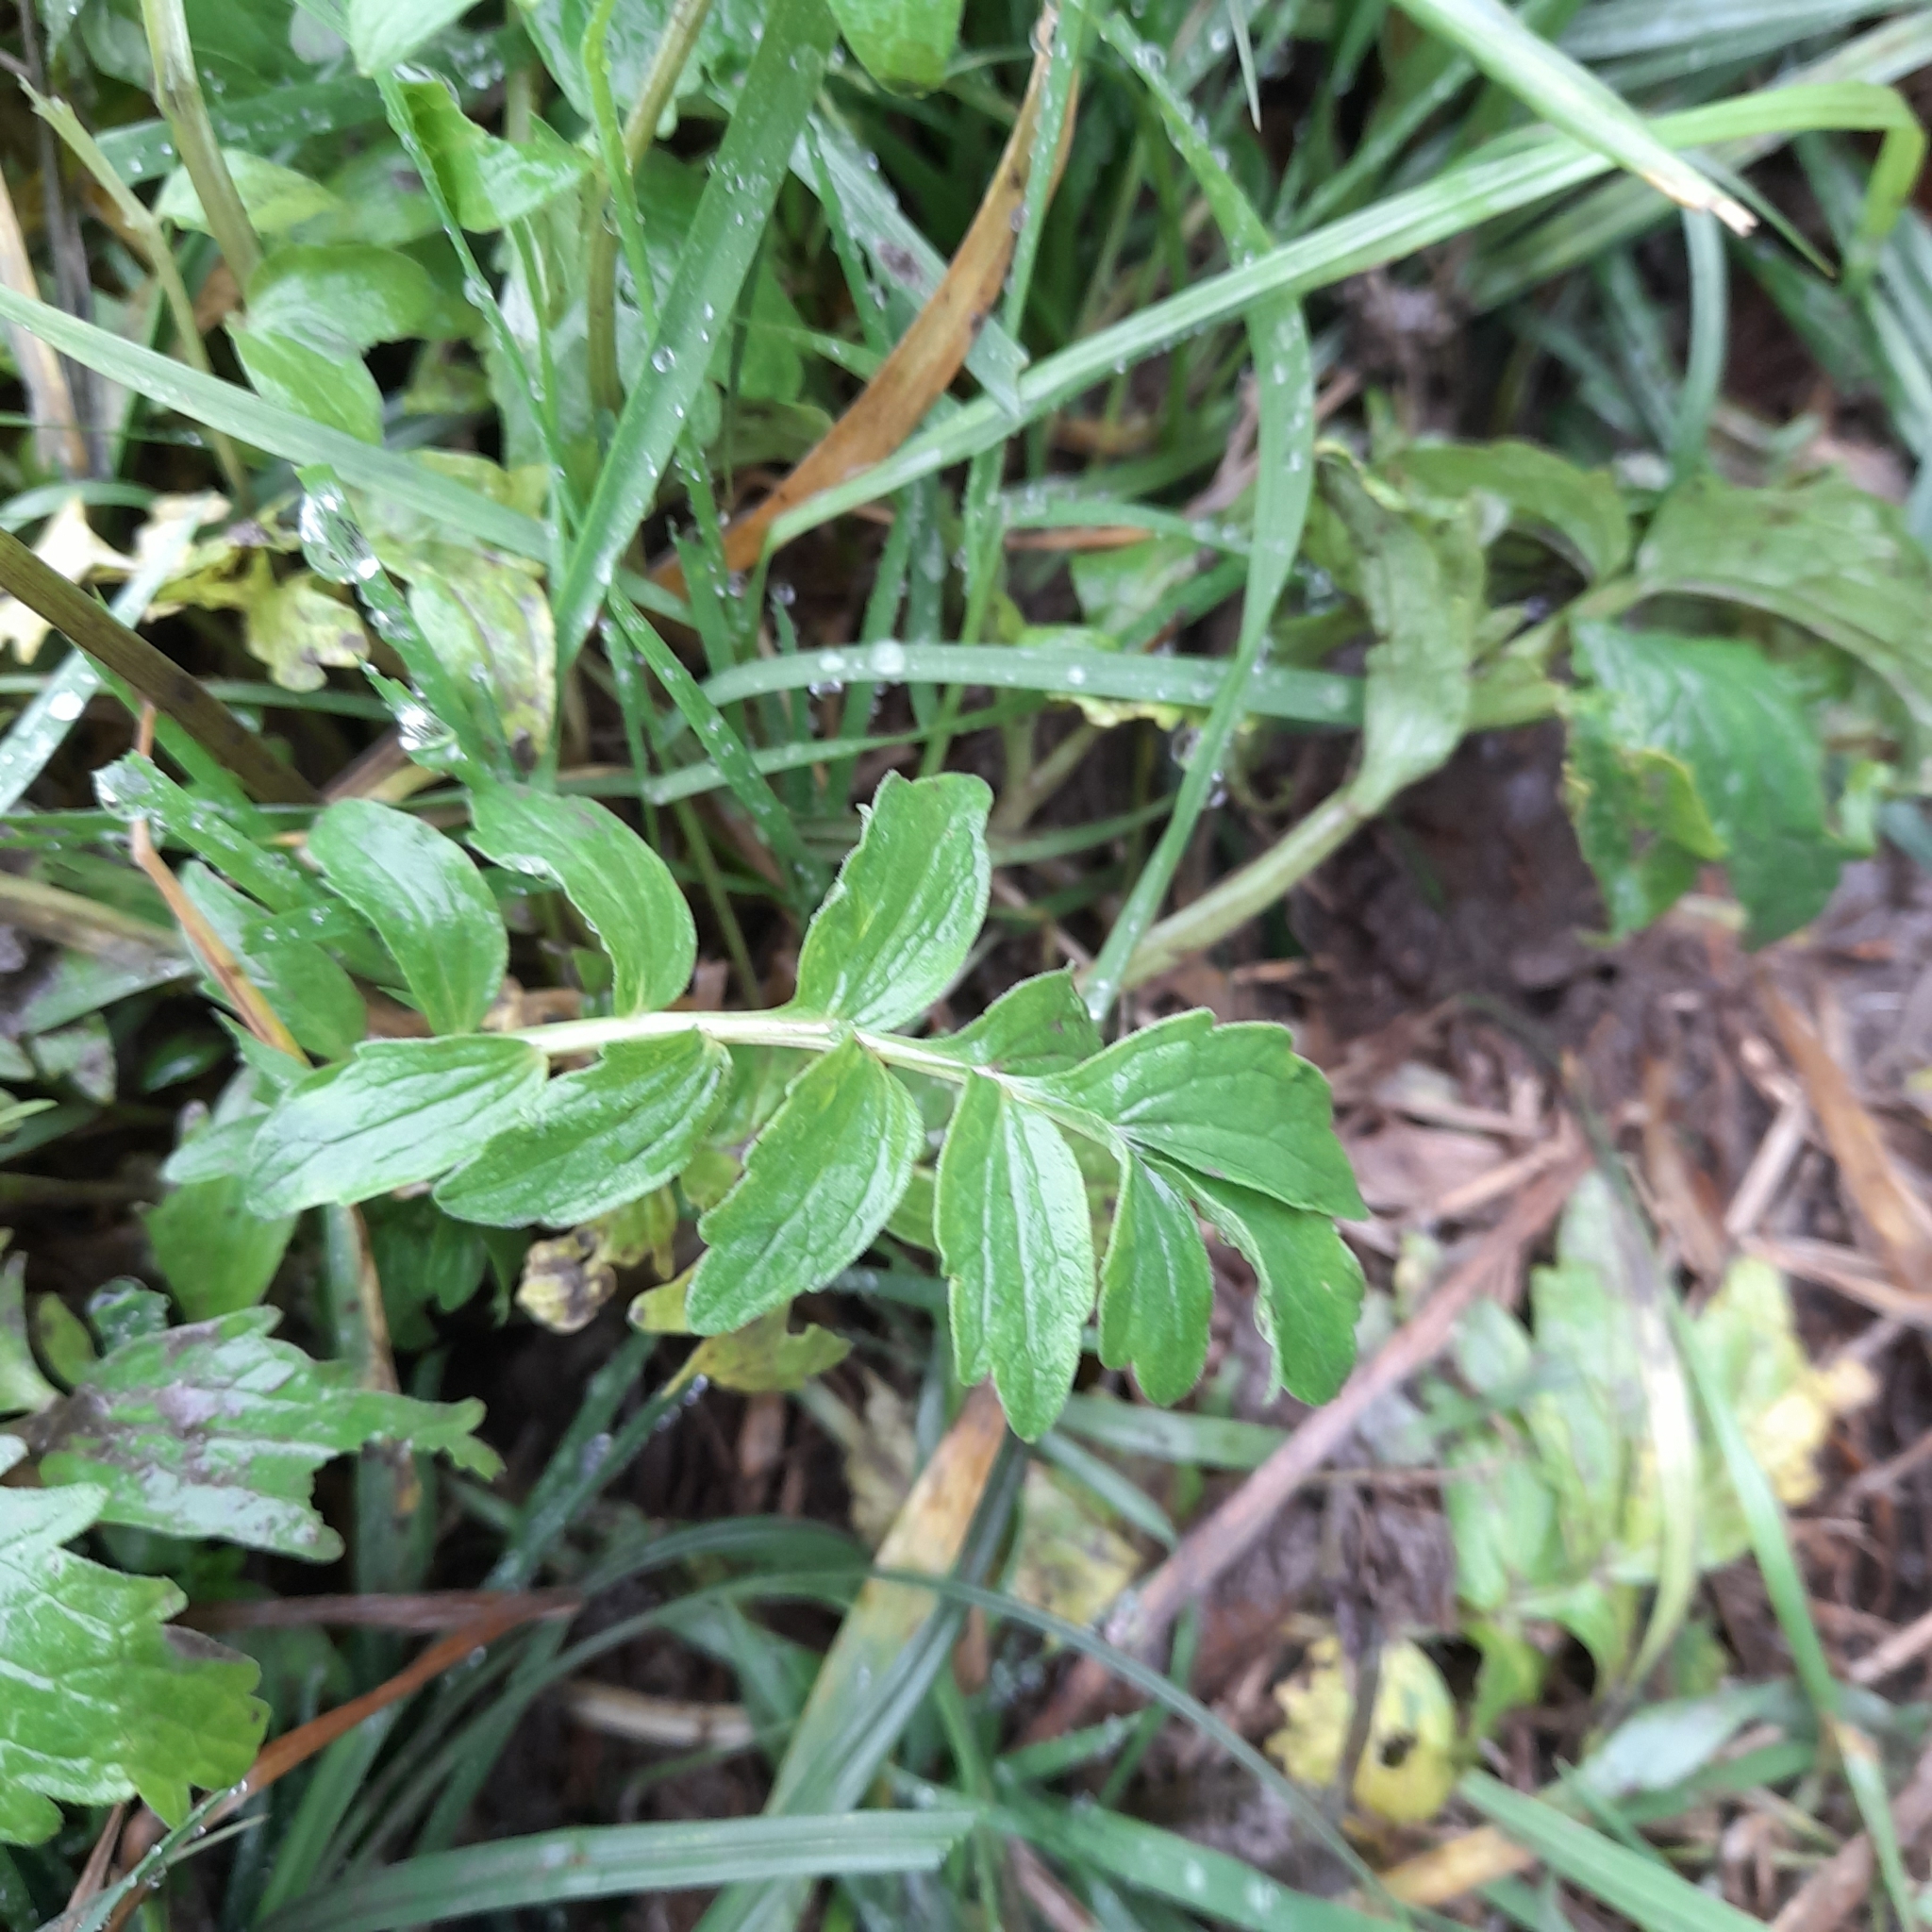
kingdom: Plantae
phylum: Tracheophyta
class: Magnoliopsida
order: Dipsacales
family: Caprifoliaceae
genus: Valeriana
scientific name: Valeriana officinalis
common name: Common valerian
